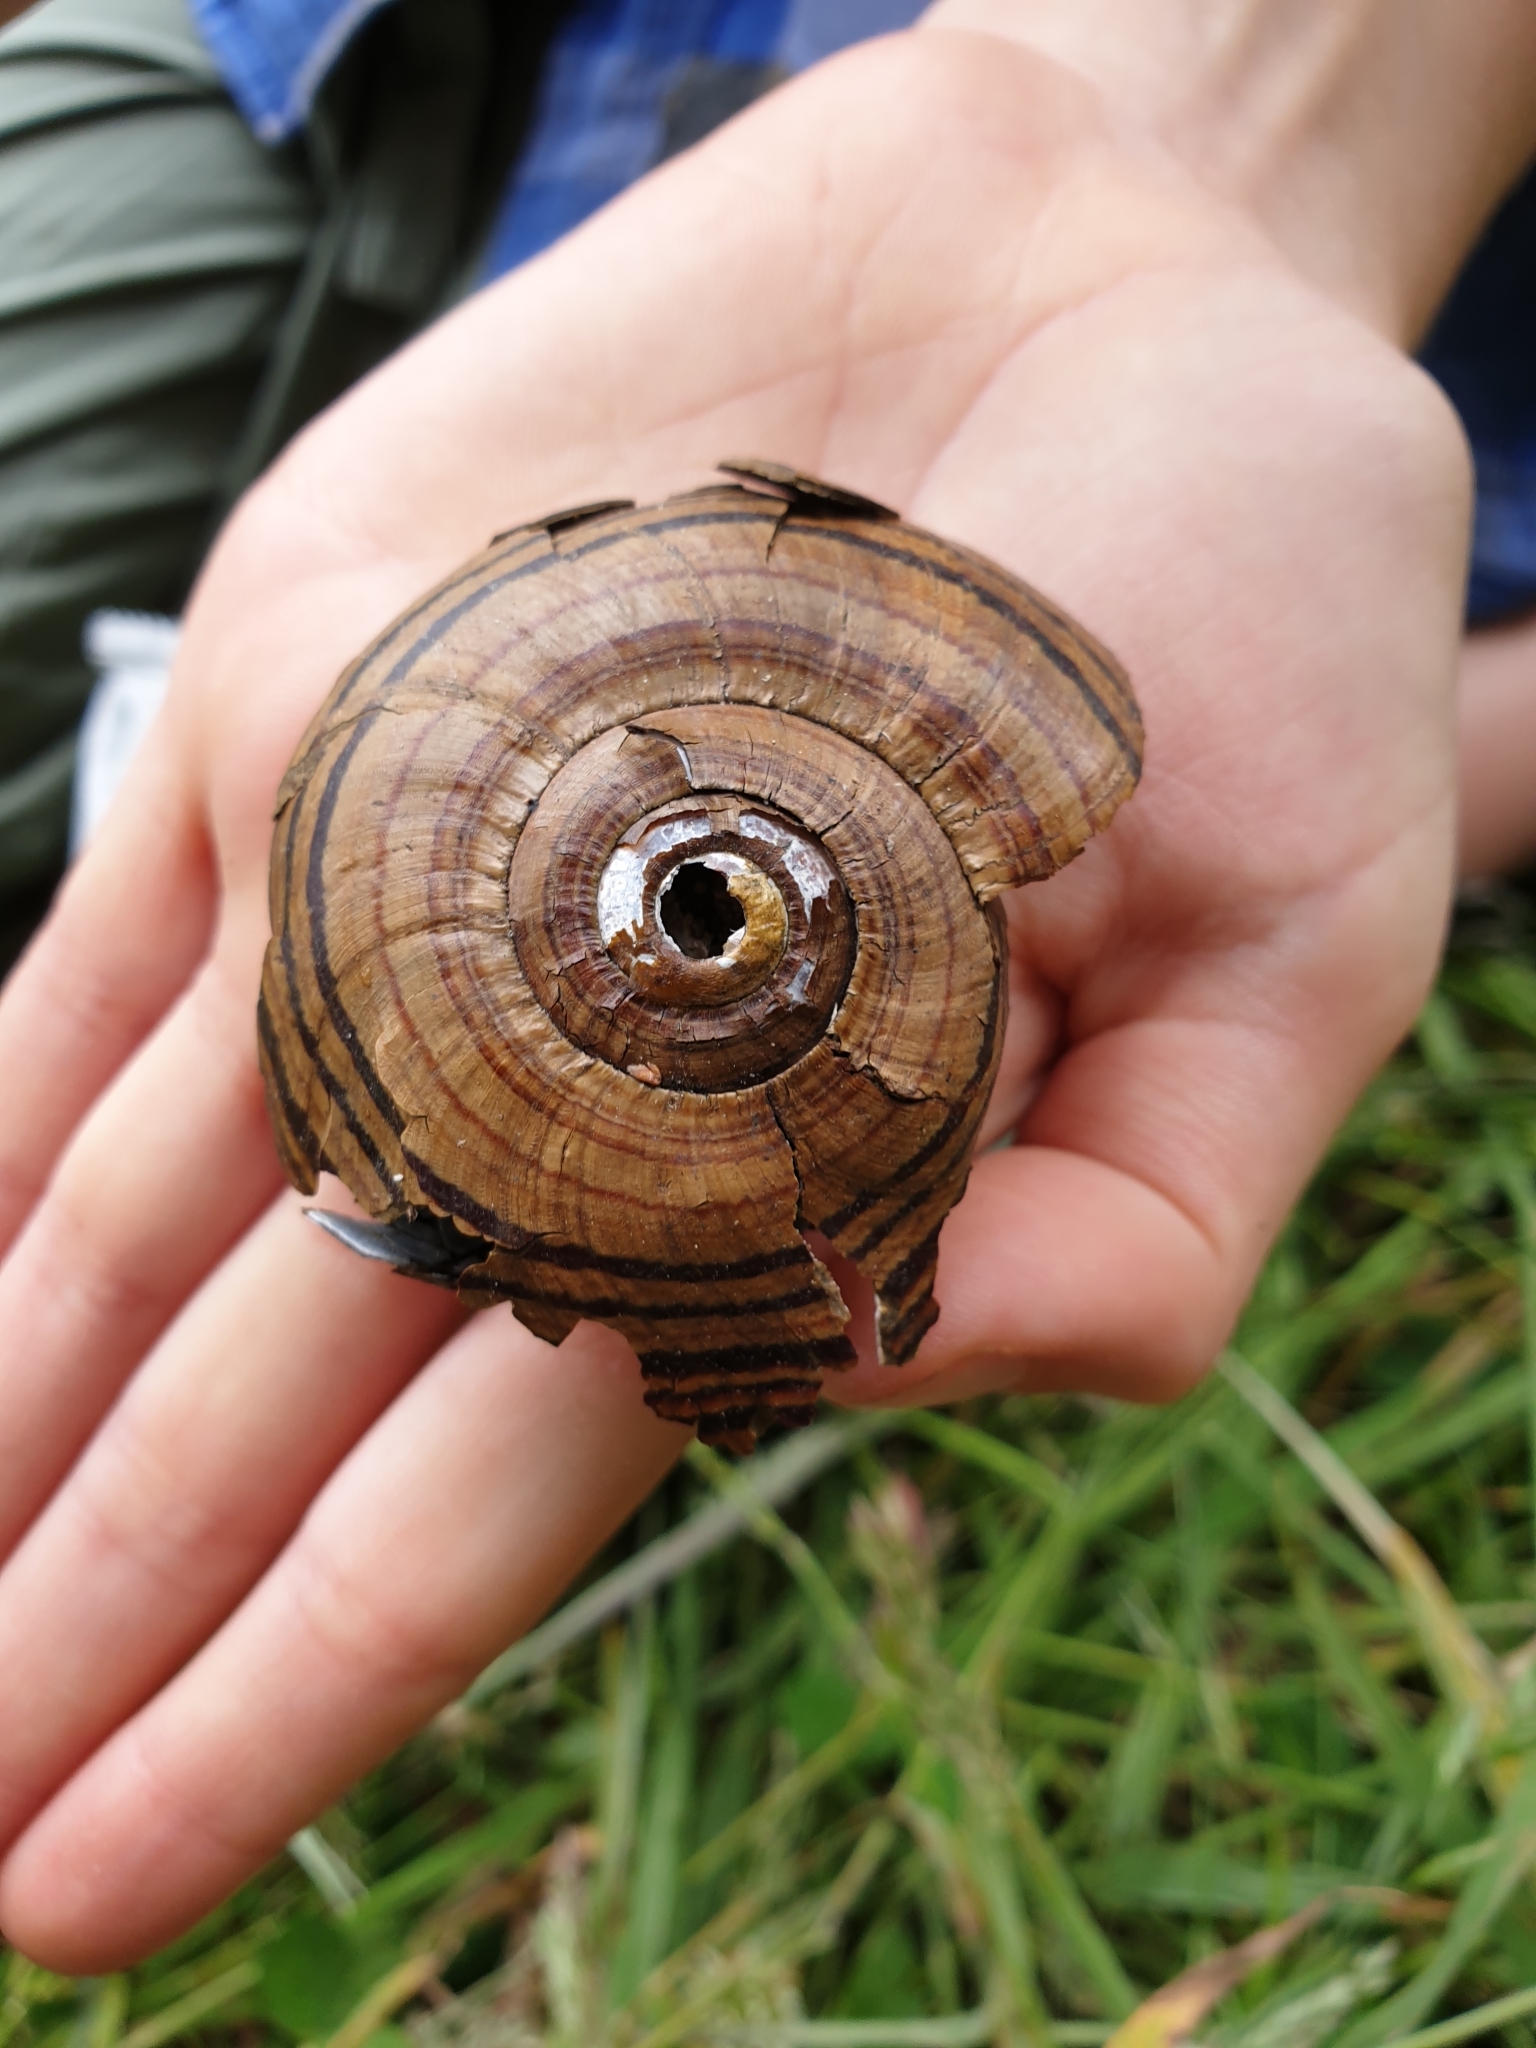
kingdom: Animalia
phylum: Mollusca
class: Gastropoda
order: Stylommatophora
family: Rhytididae
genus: Powelliphanta
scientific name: Powelliphanta hochstetteri
